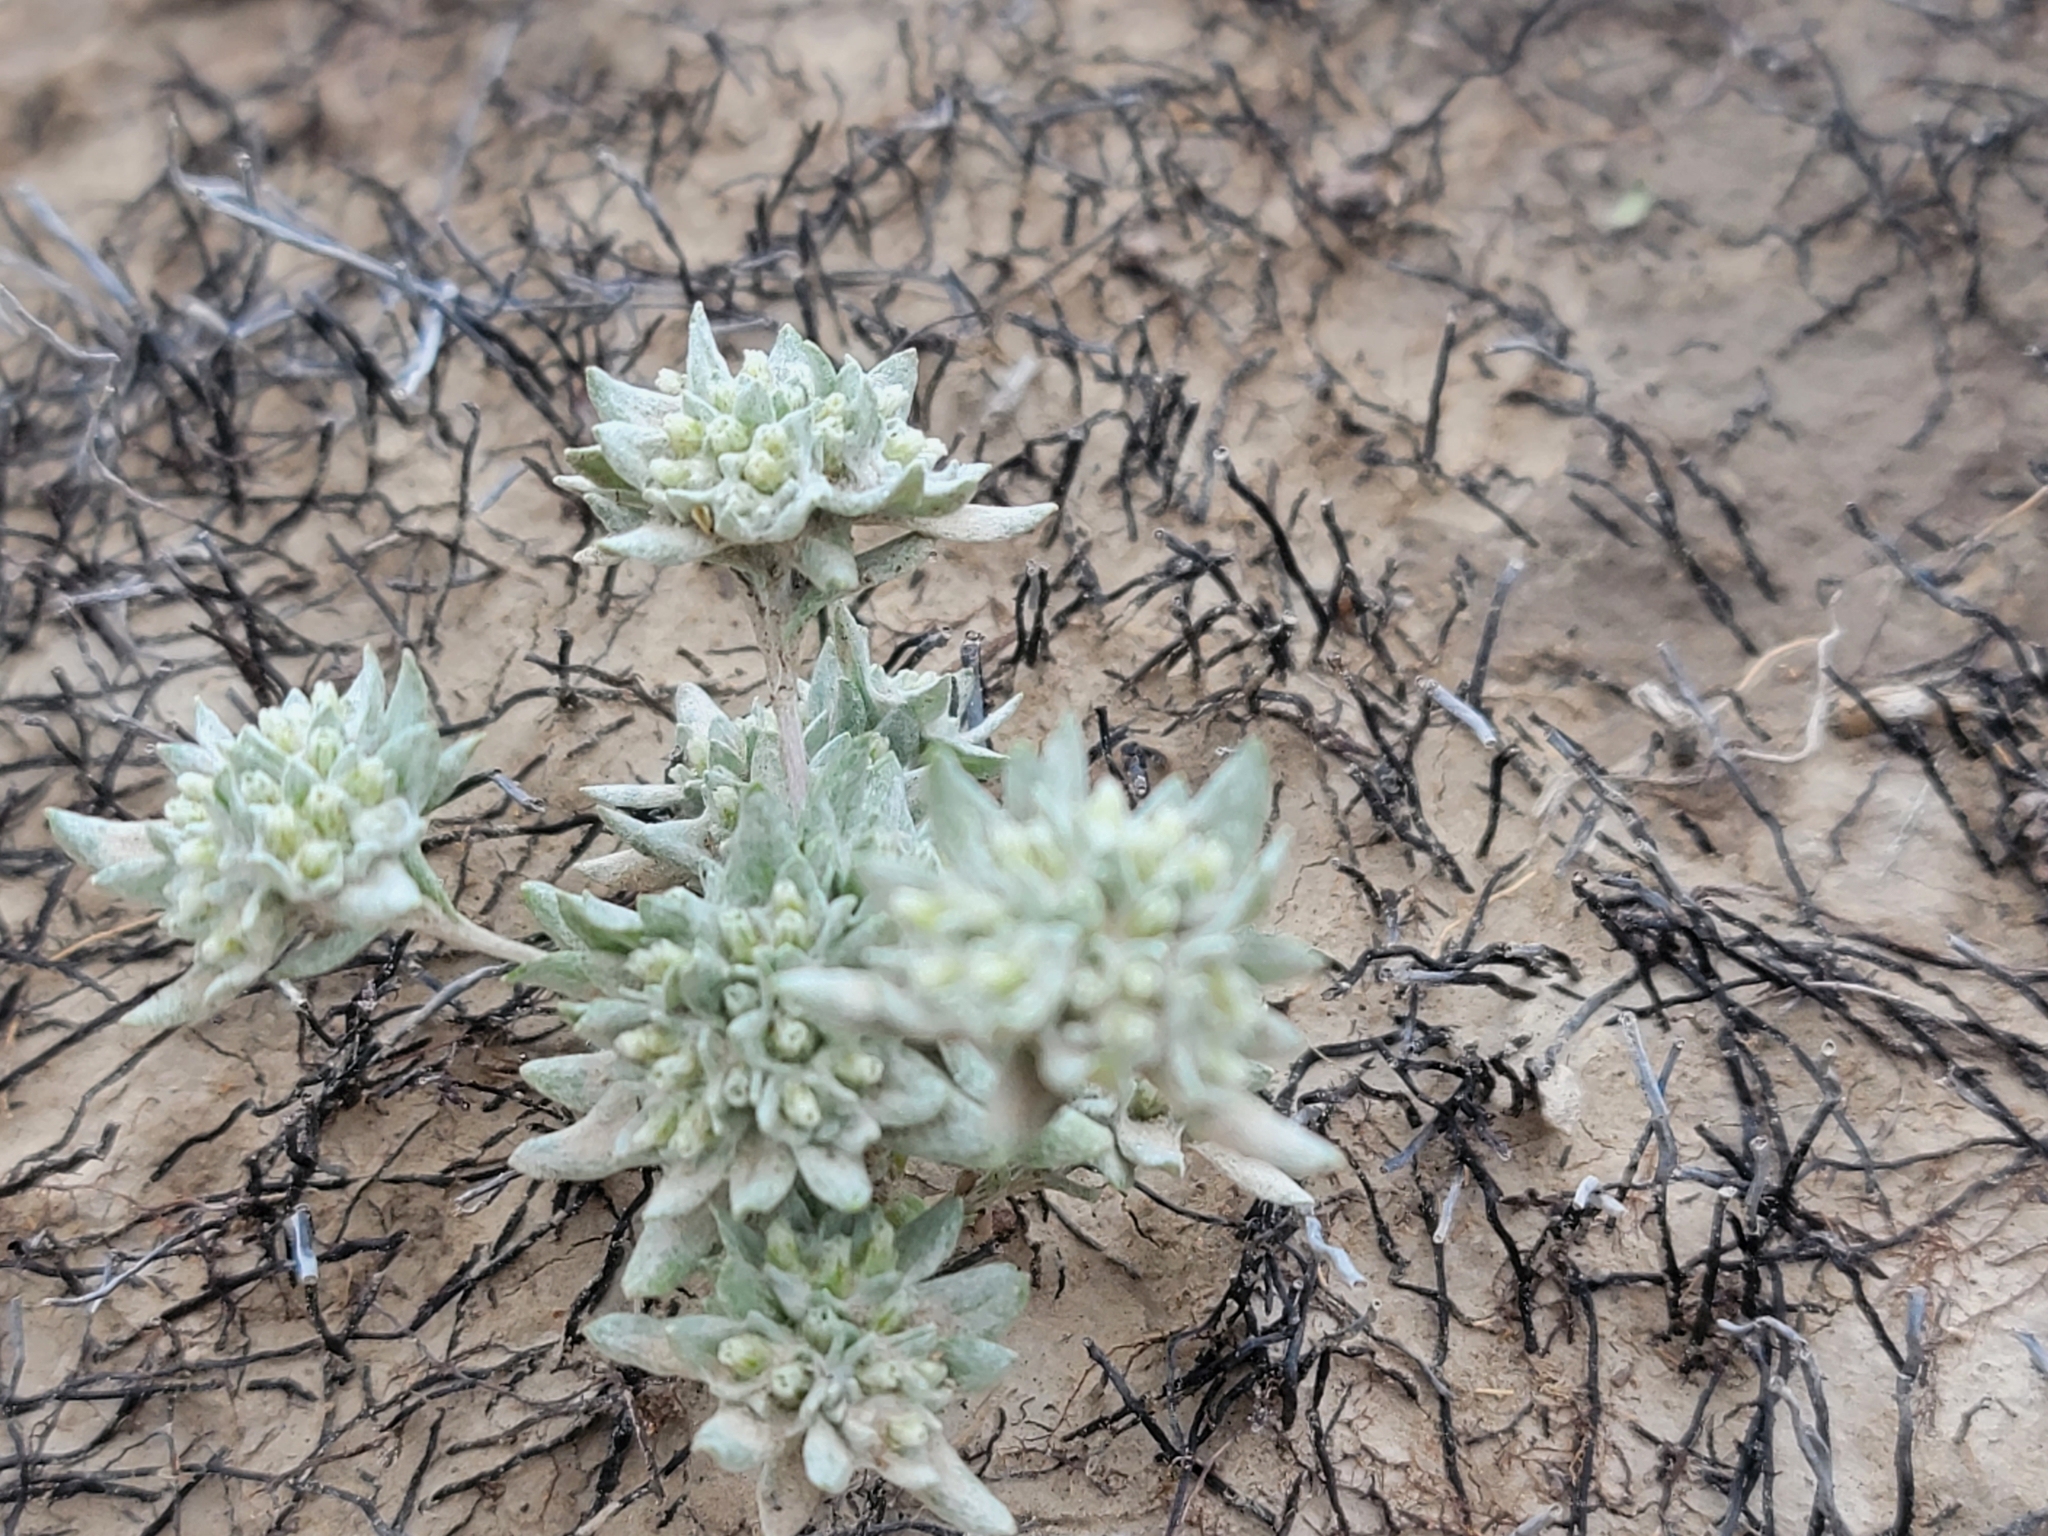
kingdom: Plantae
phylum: Tracheophyta
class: Magnoliopsida
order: Asterales
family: Asteraceae
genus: Diaperia
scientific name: Diaperia prolifera
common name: Big-head rabbit-tobacco
